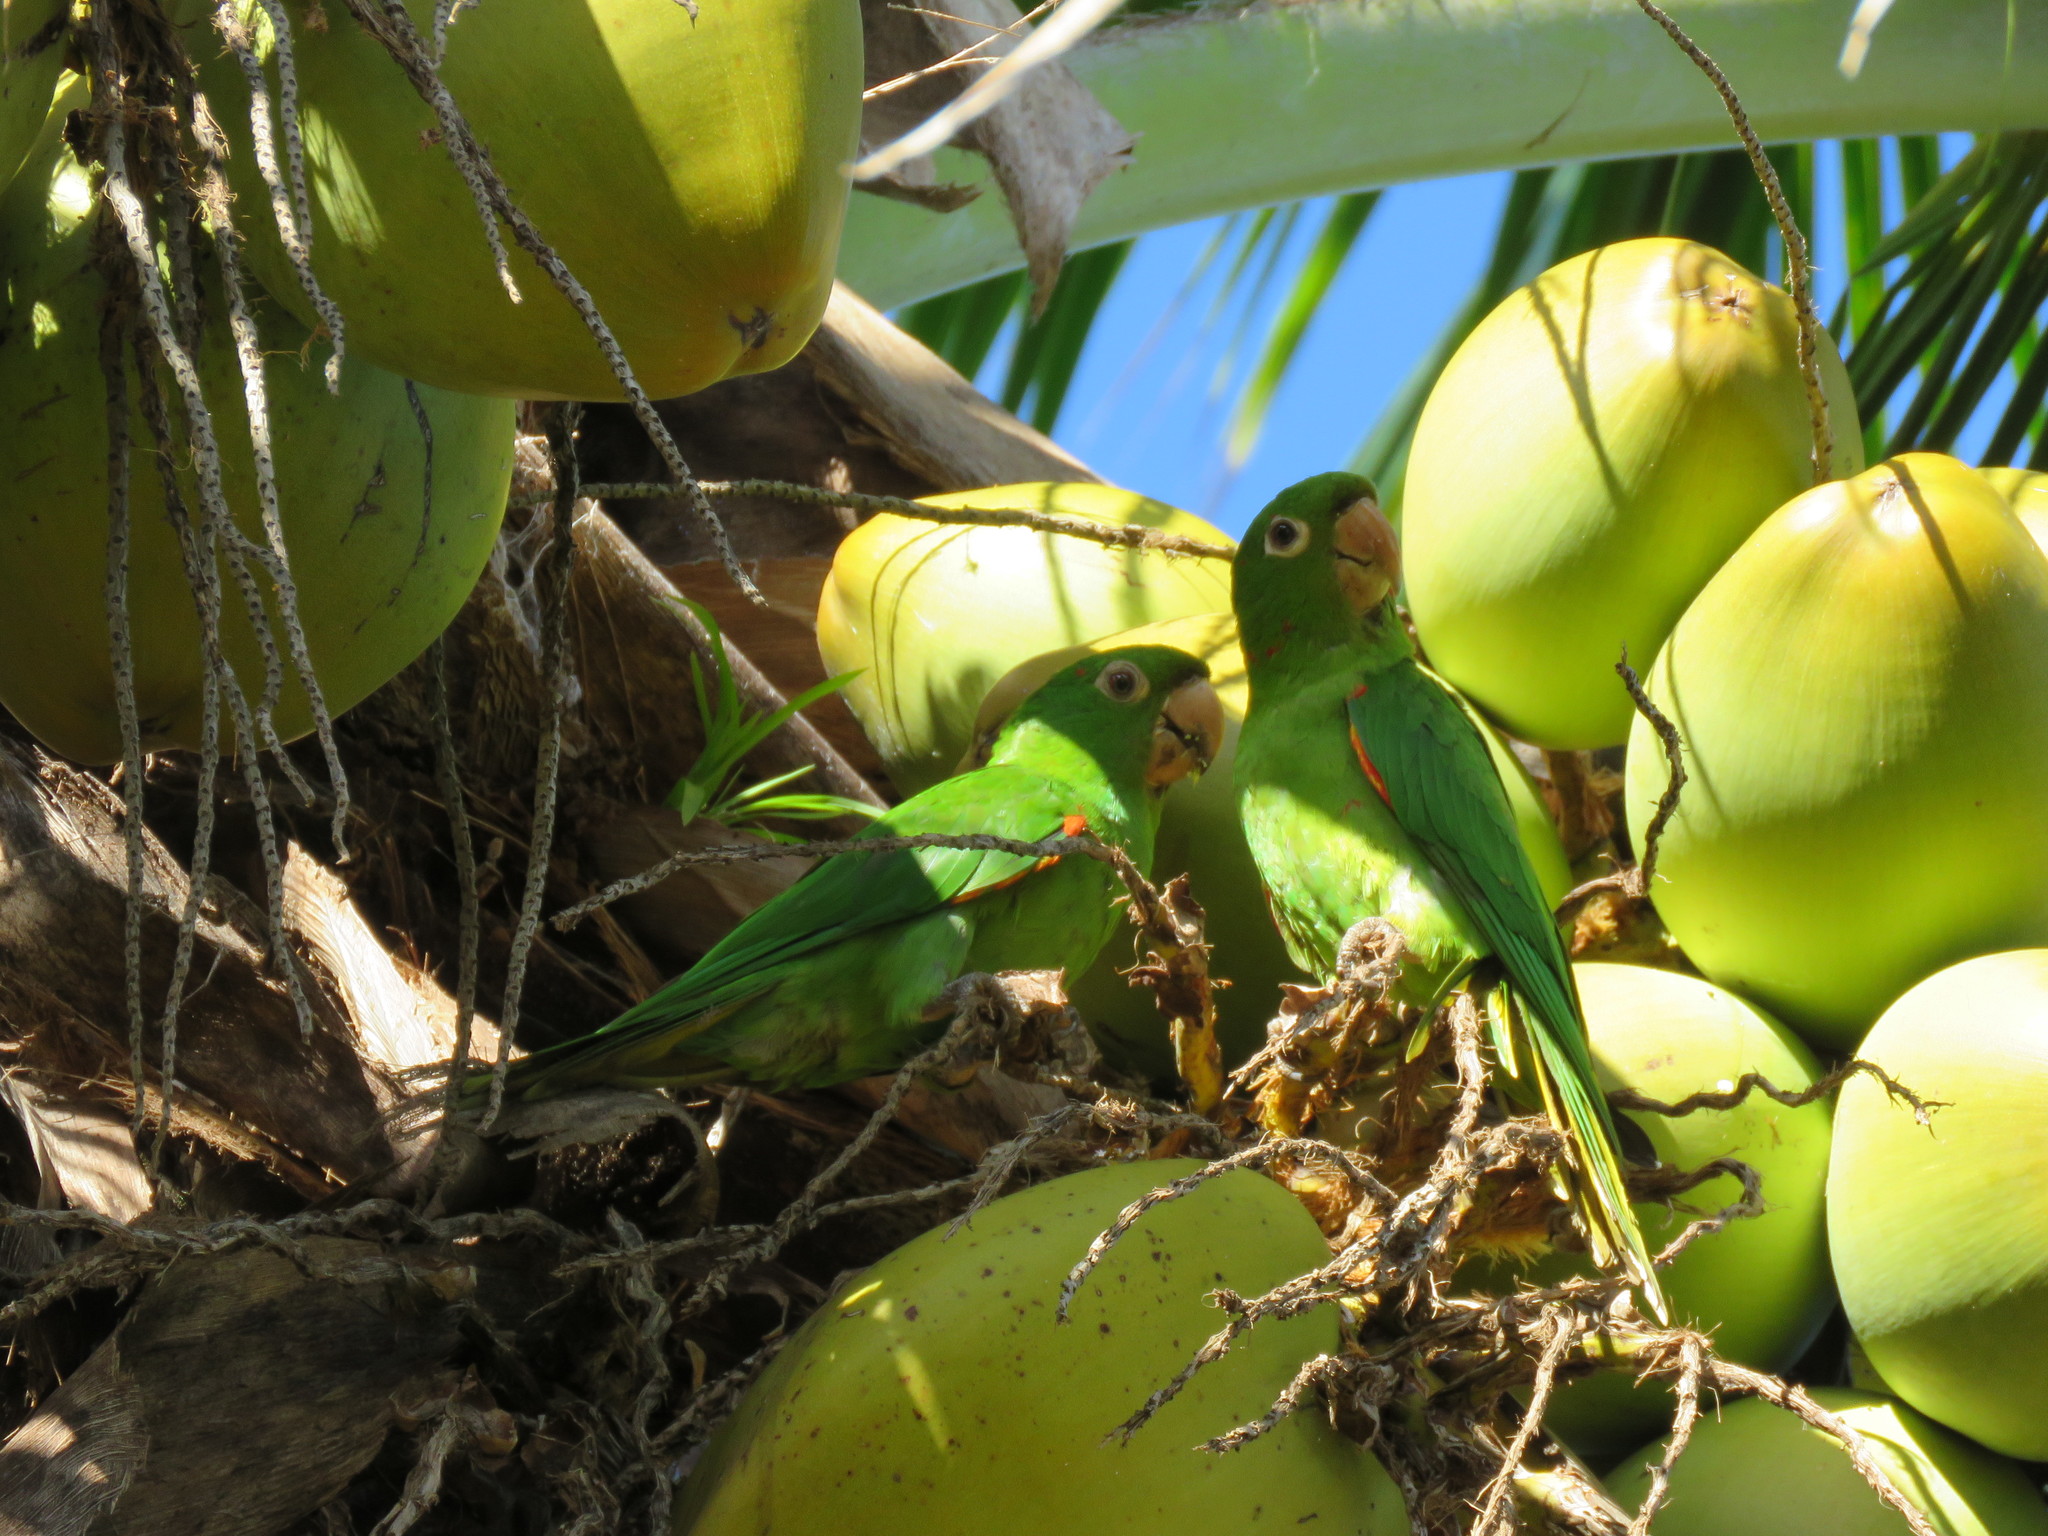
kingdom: Animalia
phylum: Chordata
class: Aves
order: Psittaciformes
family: Psittacidae
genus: Aratinga
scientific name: Aratinga leucophthalma
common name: White-eyed parakeet
